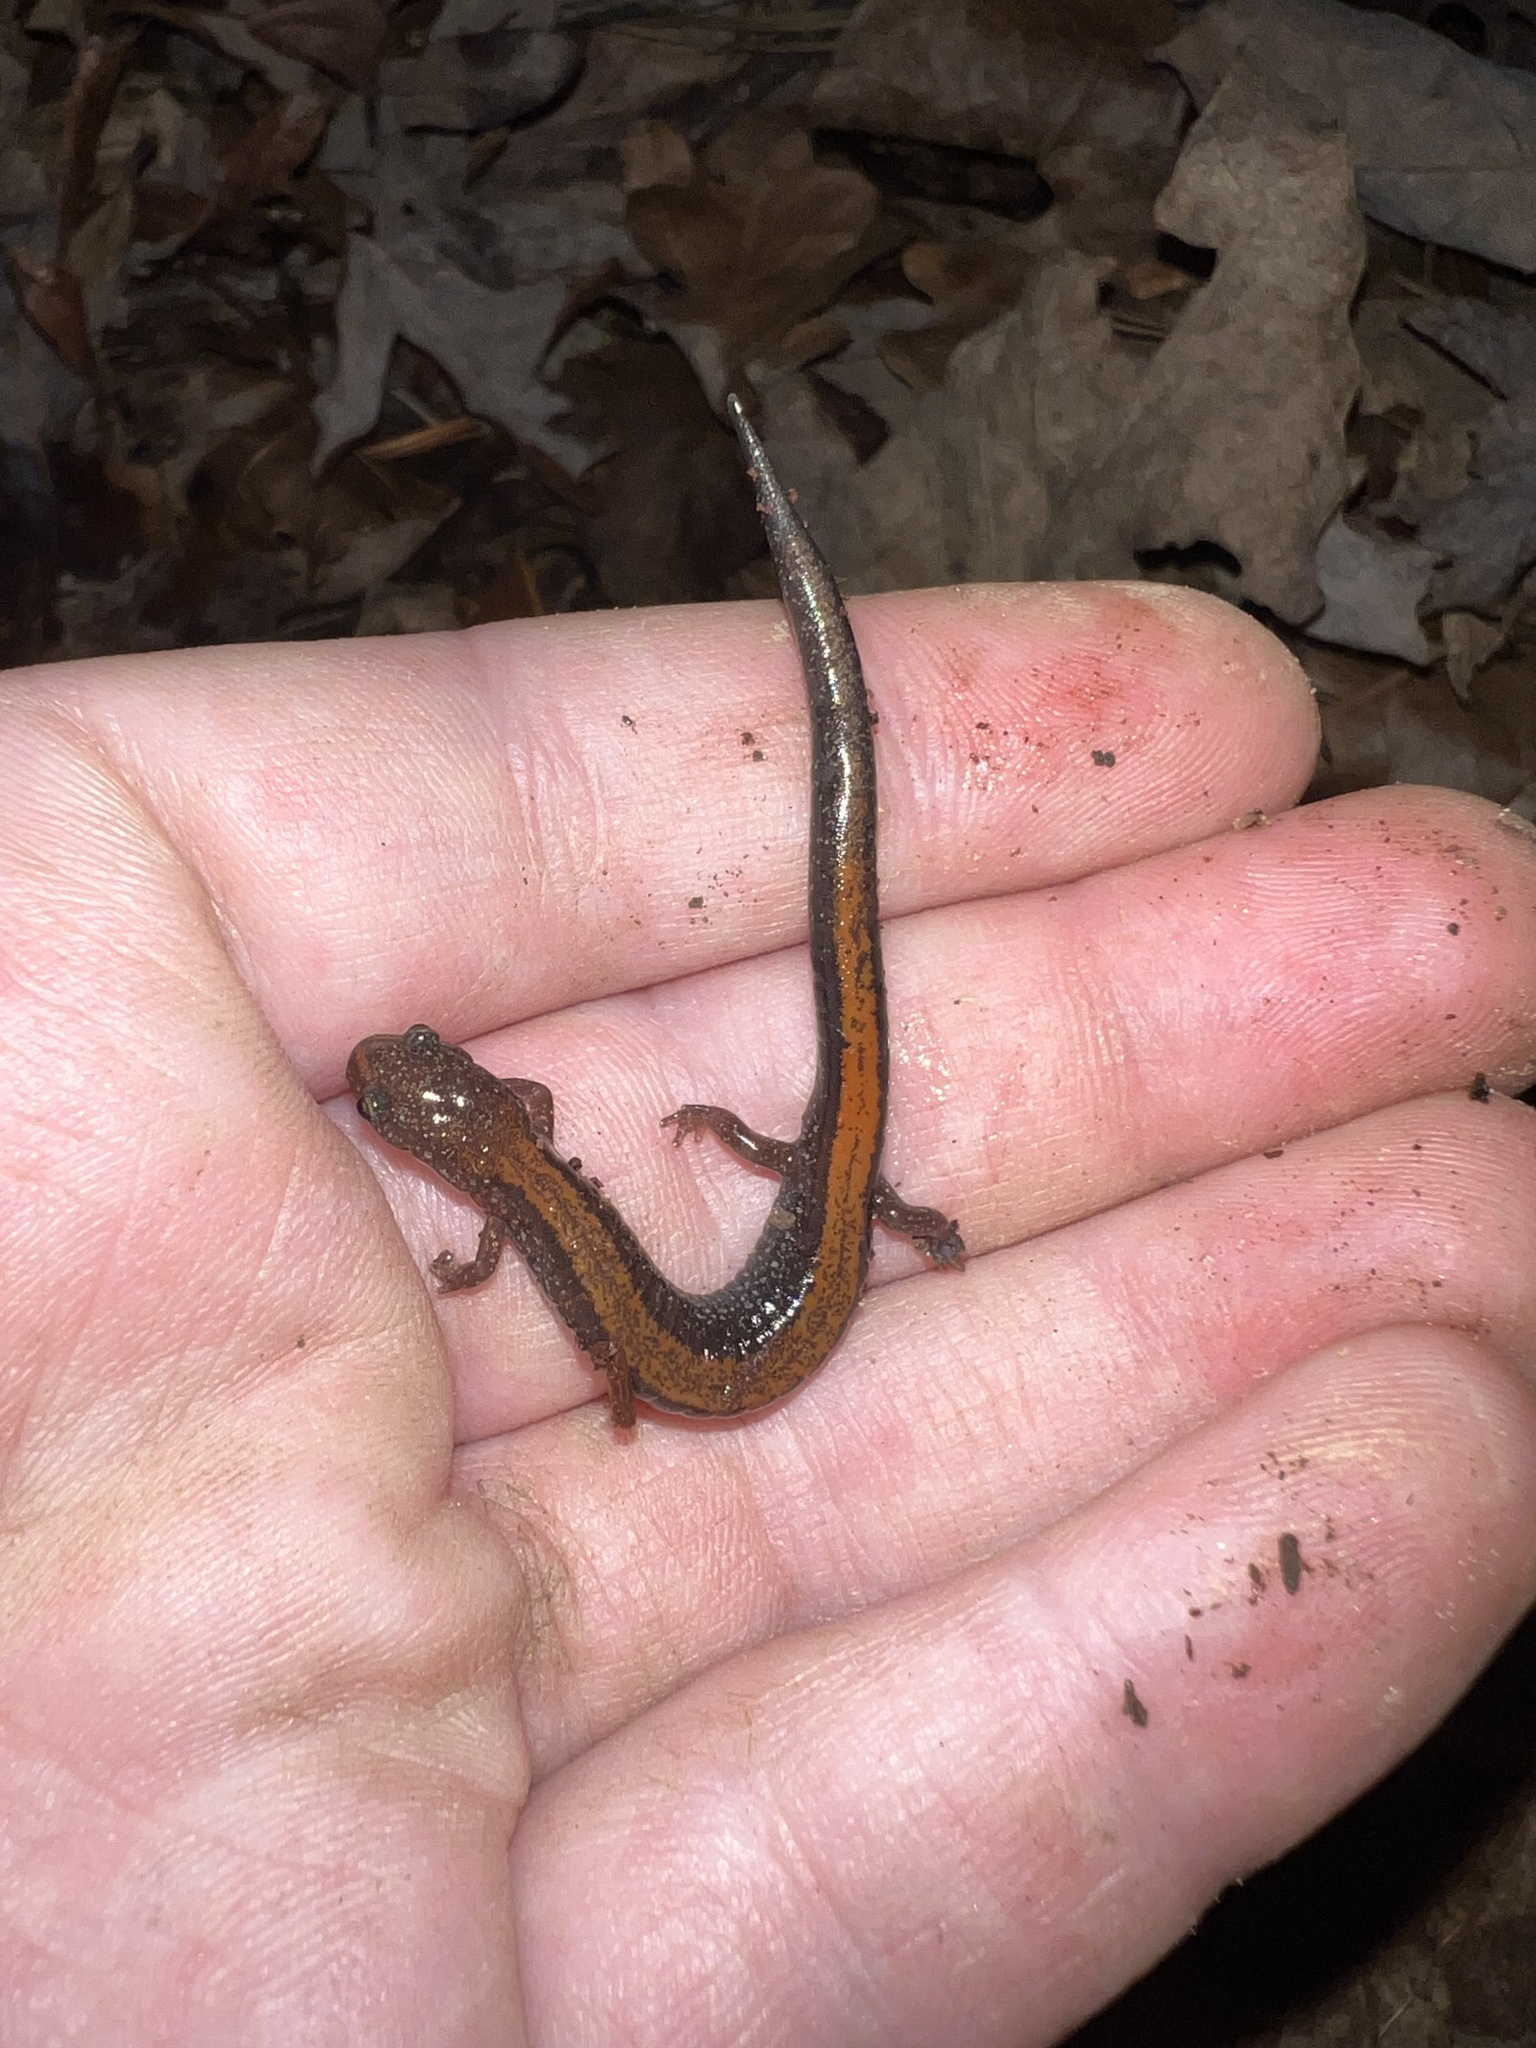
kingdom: Animalia
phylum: Chordata
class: Amphibia
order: Caudata
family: Plethodontidae
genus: Plethodon
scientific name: Plethodon cinereus
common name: Redback salamander
